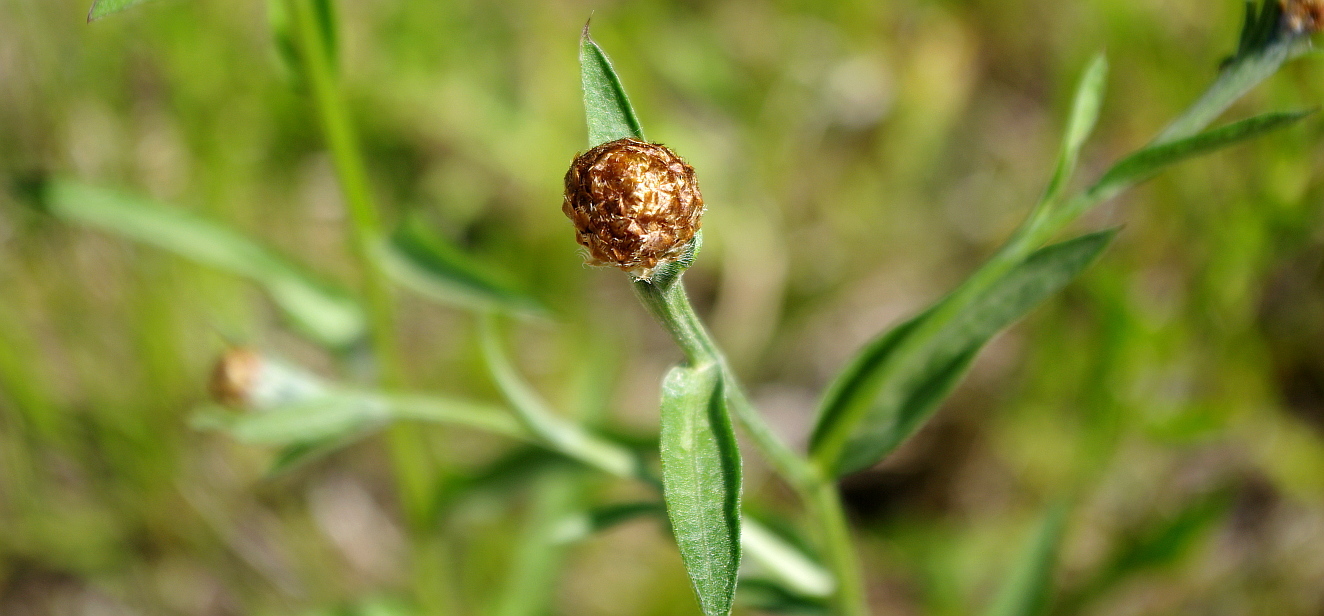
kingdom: Plantae
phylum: Tracheophyta
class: Magnoliopsida
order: Asterales
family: Asteraceae
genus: Centaurea
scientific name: Centaurea jacea
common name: Brown knapweed
